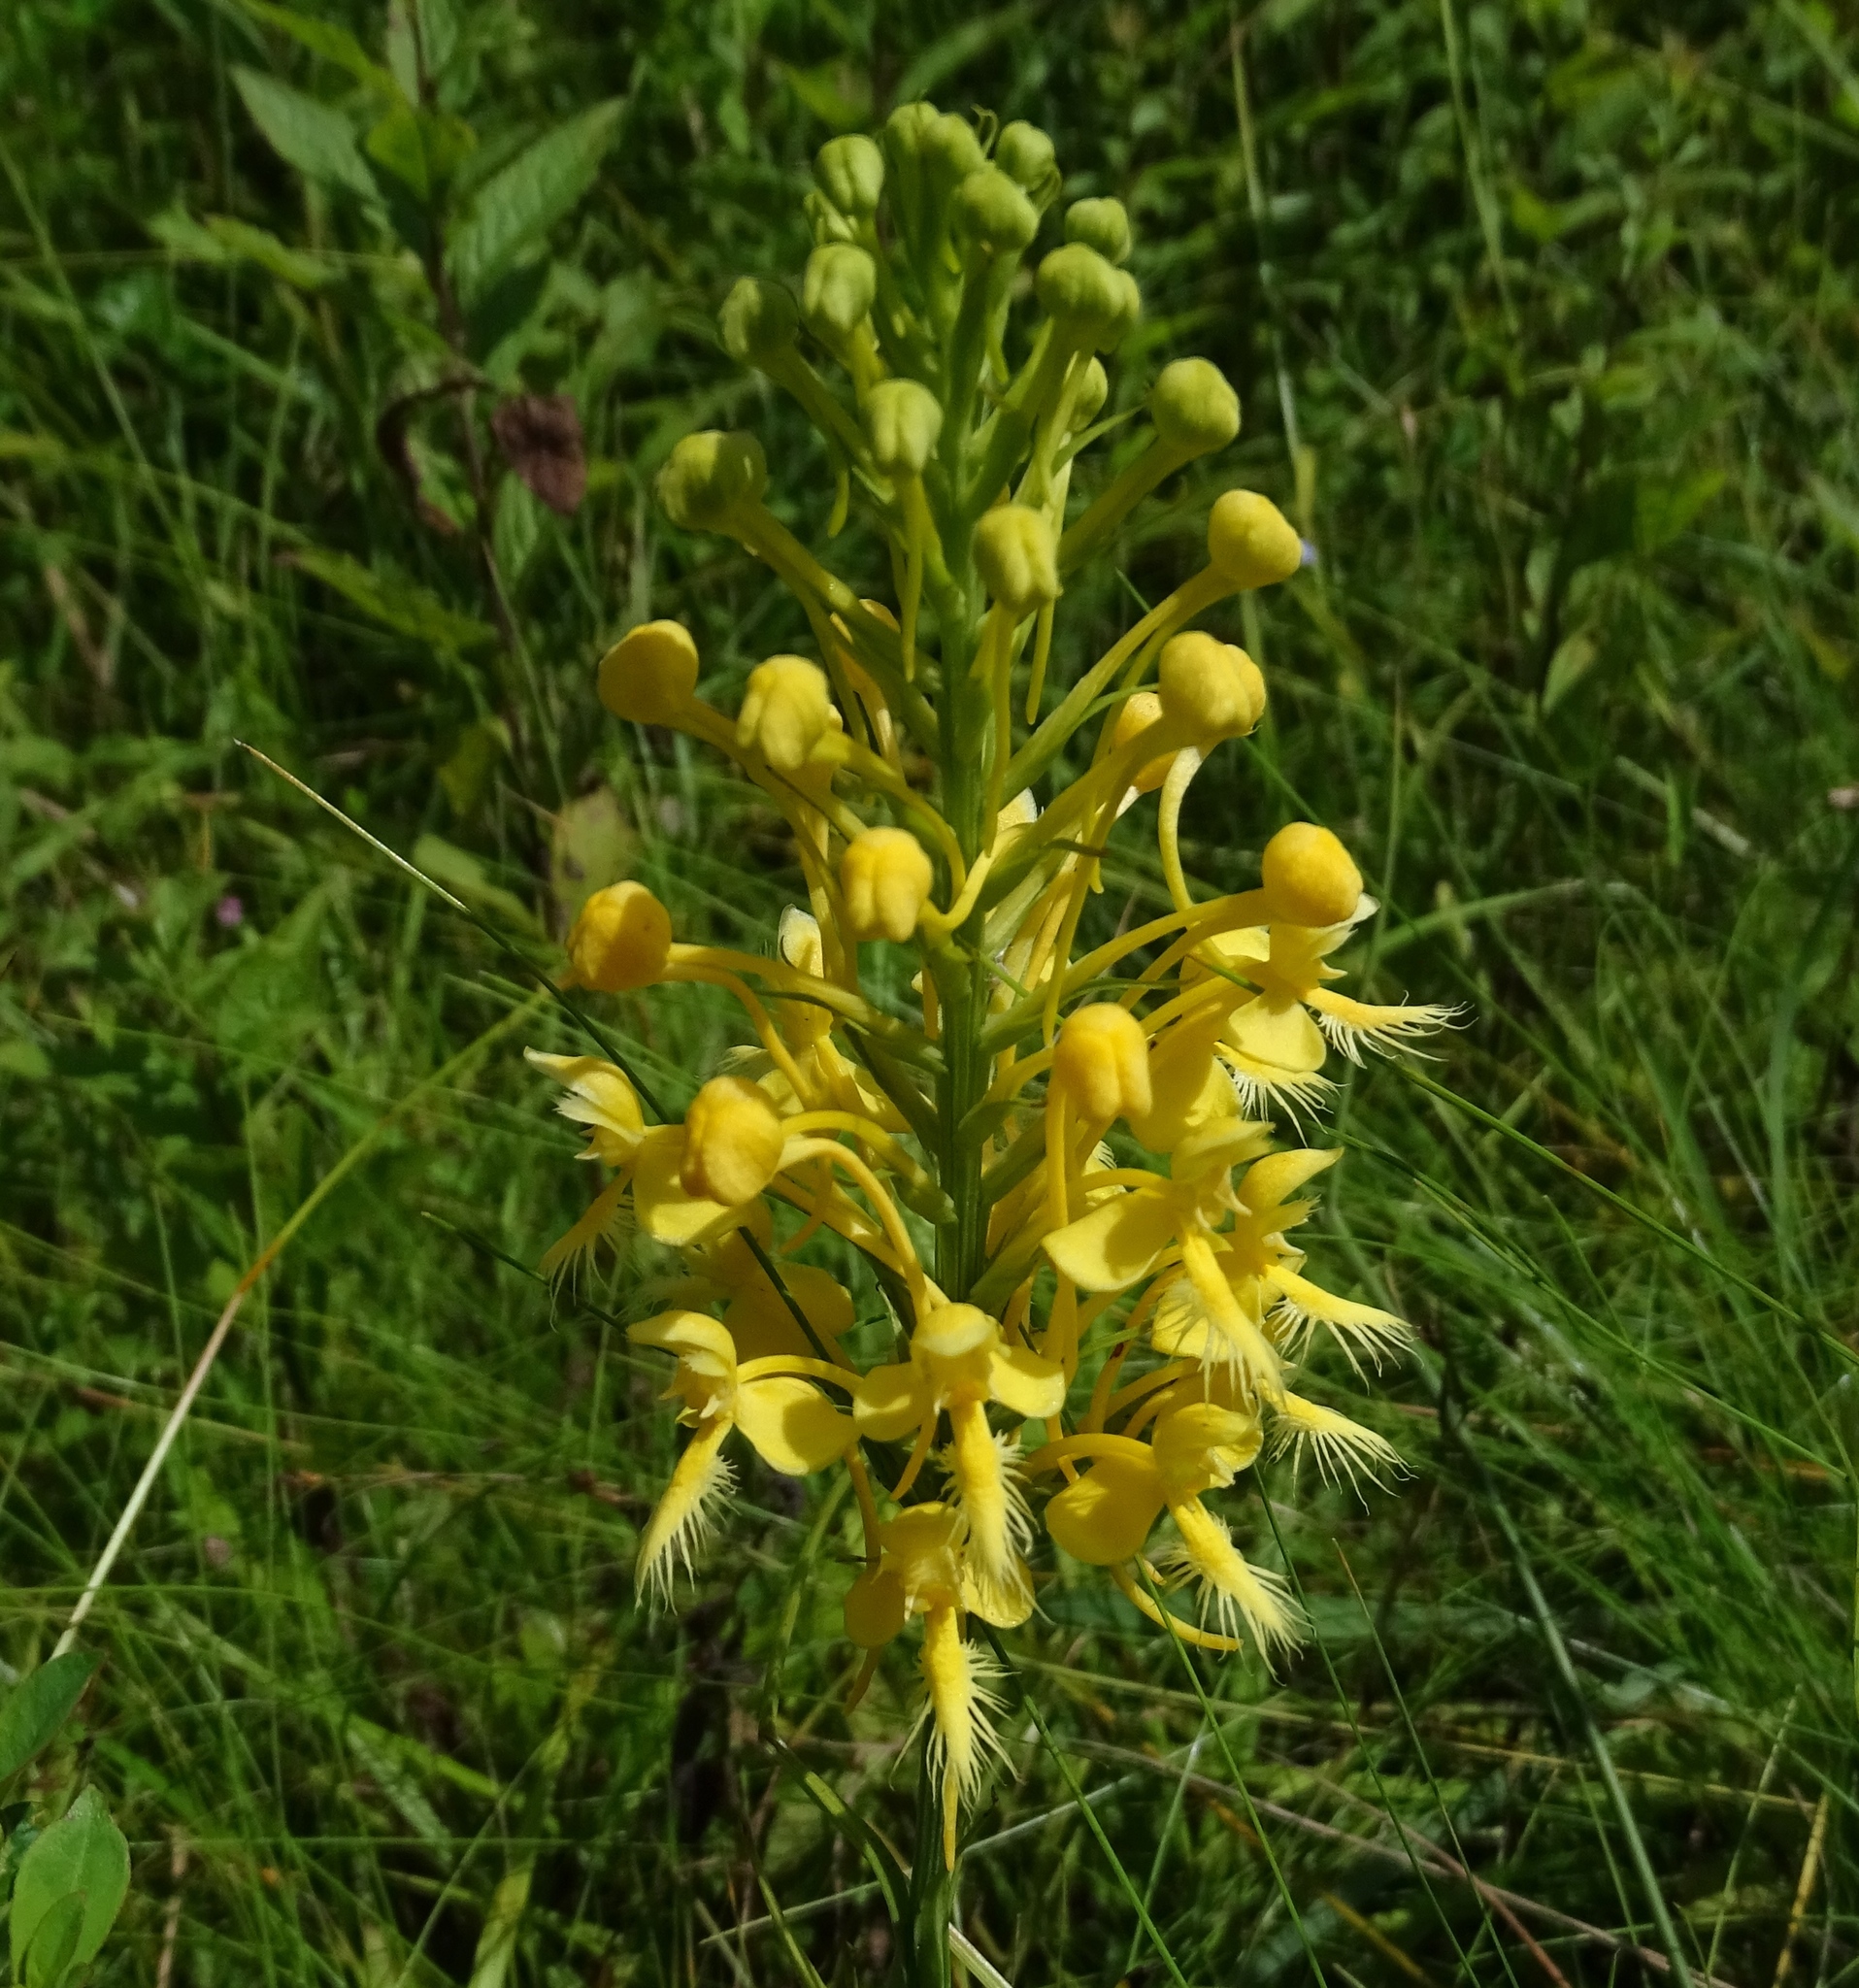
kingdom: Plantae
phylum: Tracheophyta
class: Liliopsida
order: Asparagales
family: Orchidaceae
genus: Platanthera
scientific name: Platanthera bicolor
